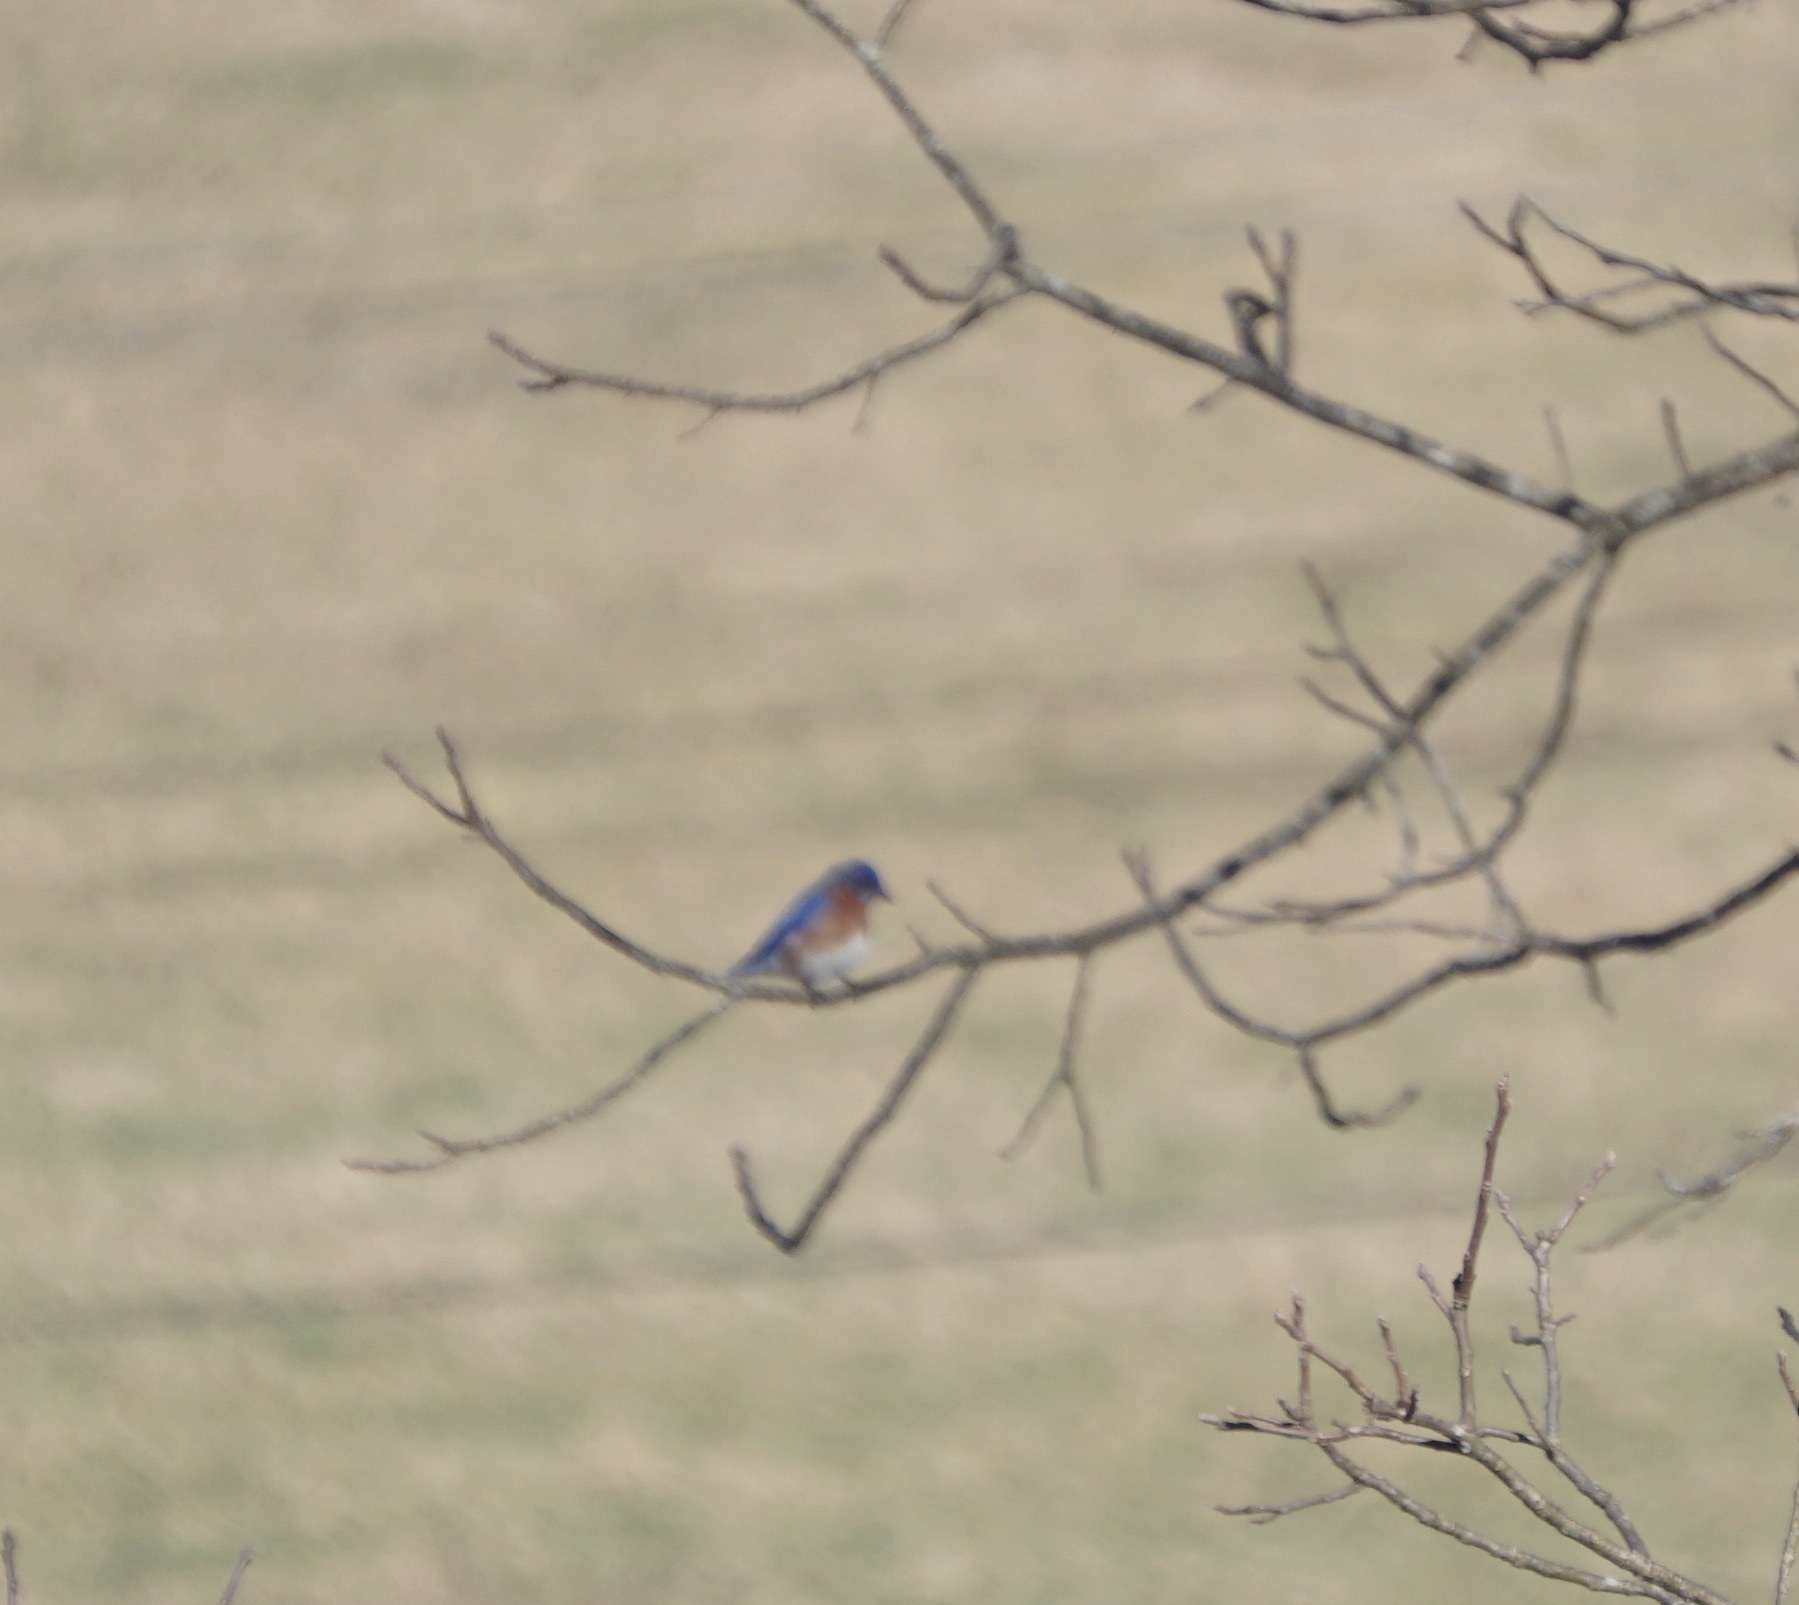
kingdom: Animalia
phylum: Chordata
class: Aves
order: Passeriformes
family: Turdidae
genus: Sialia
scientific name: Sialia sialis
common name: Eastern bluebird
